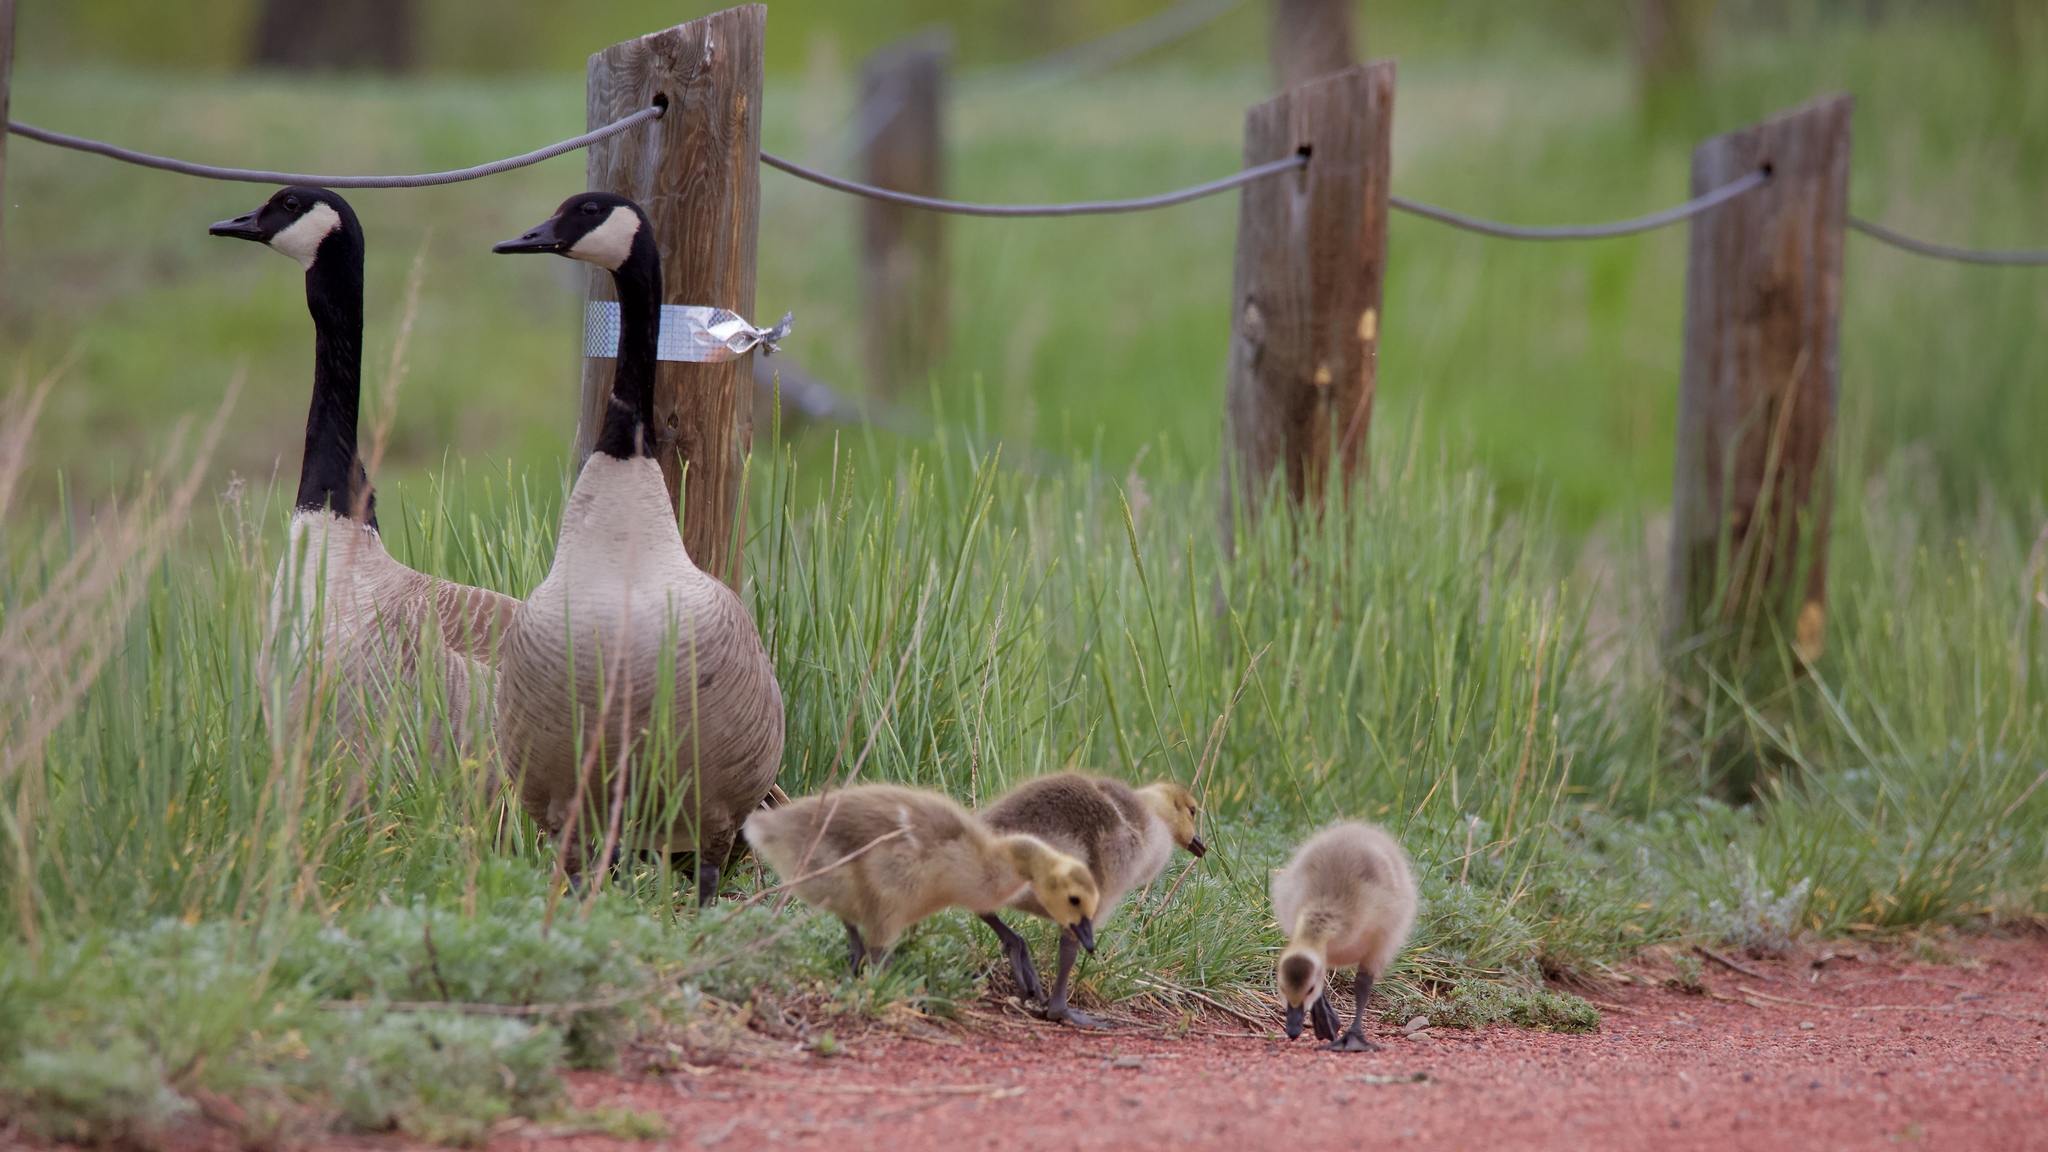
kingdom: Animalia
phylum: Chordata
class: Aves
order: Anseriformes
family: Anatidae
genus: Branta
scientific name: Branta canadensis
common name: Canada goose
